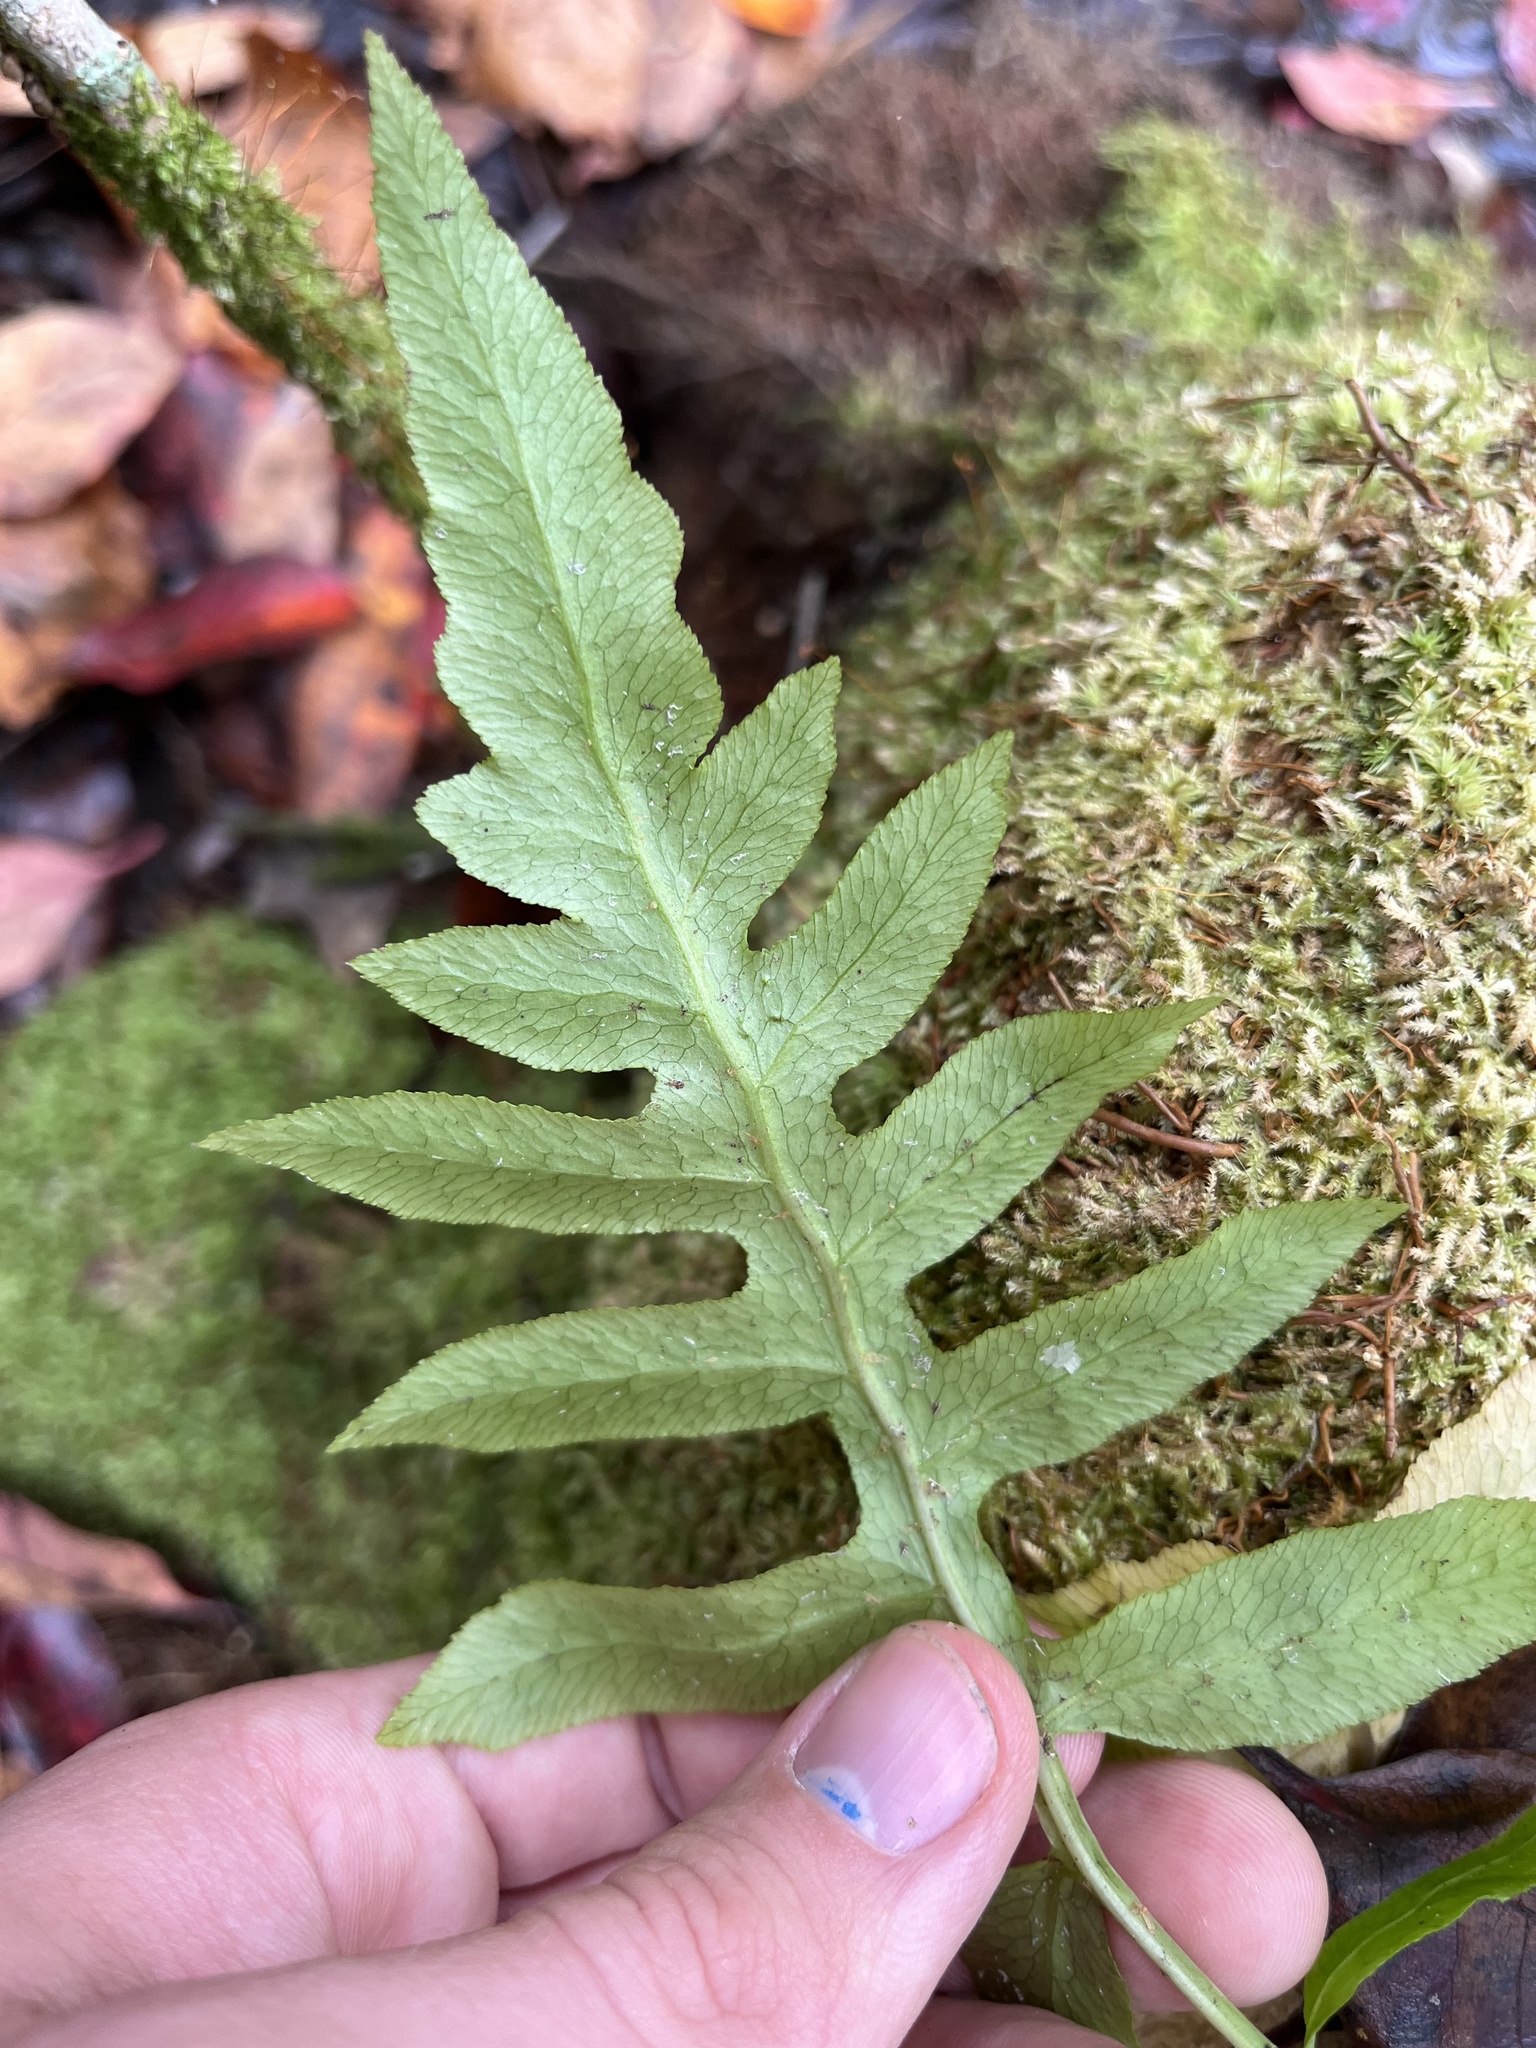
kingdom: Plantae
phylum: Tracheophyta
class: Polypodiopsida
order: Polypodiales
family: Blechnaceae
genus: Lorinseria
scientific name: Lorinseria areolata
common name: Dwarf chain fern
